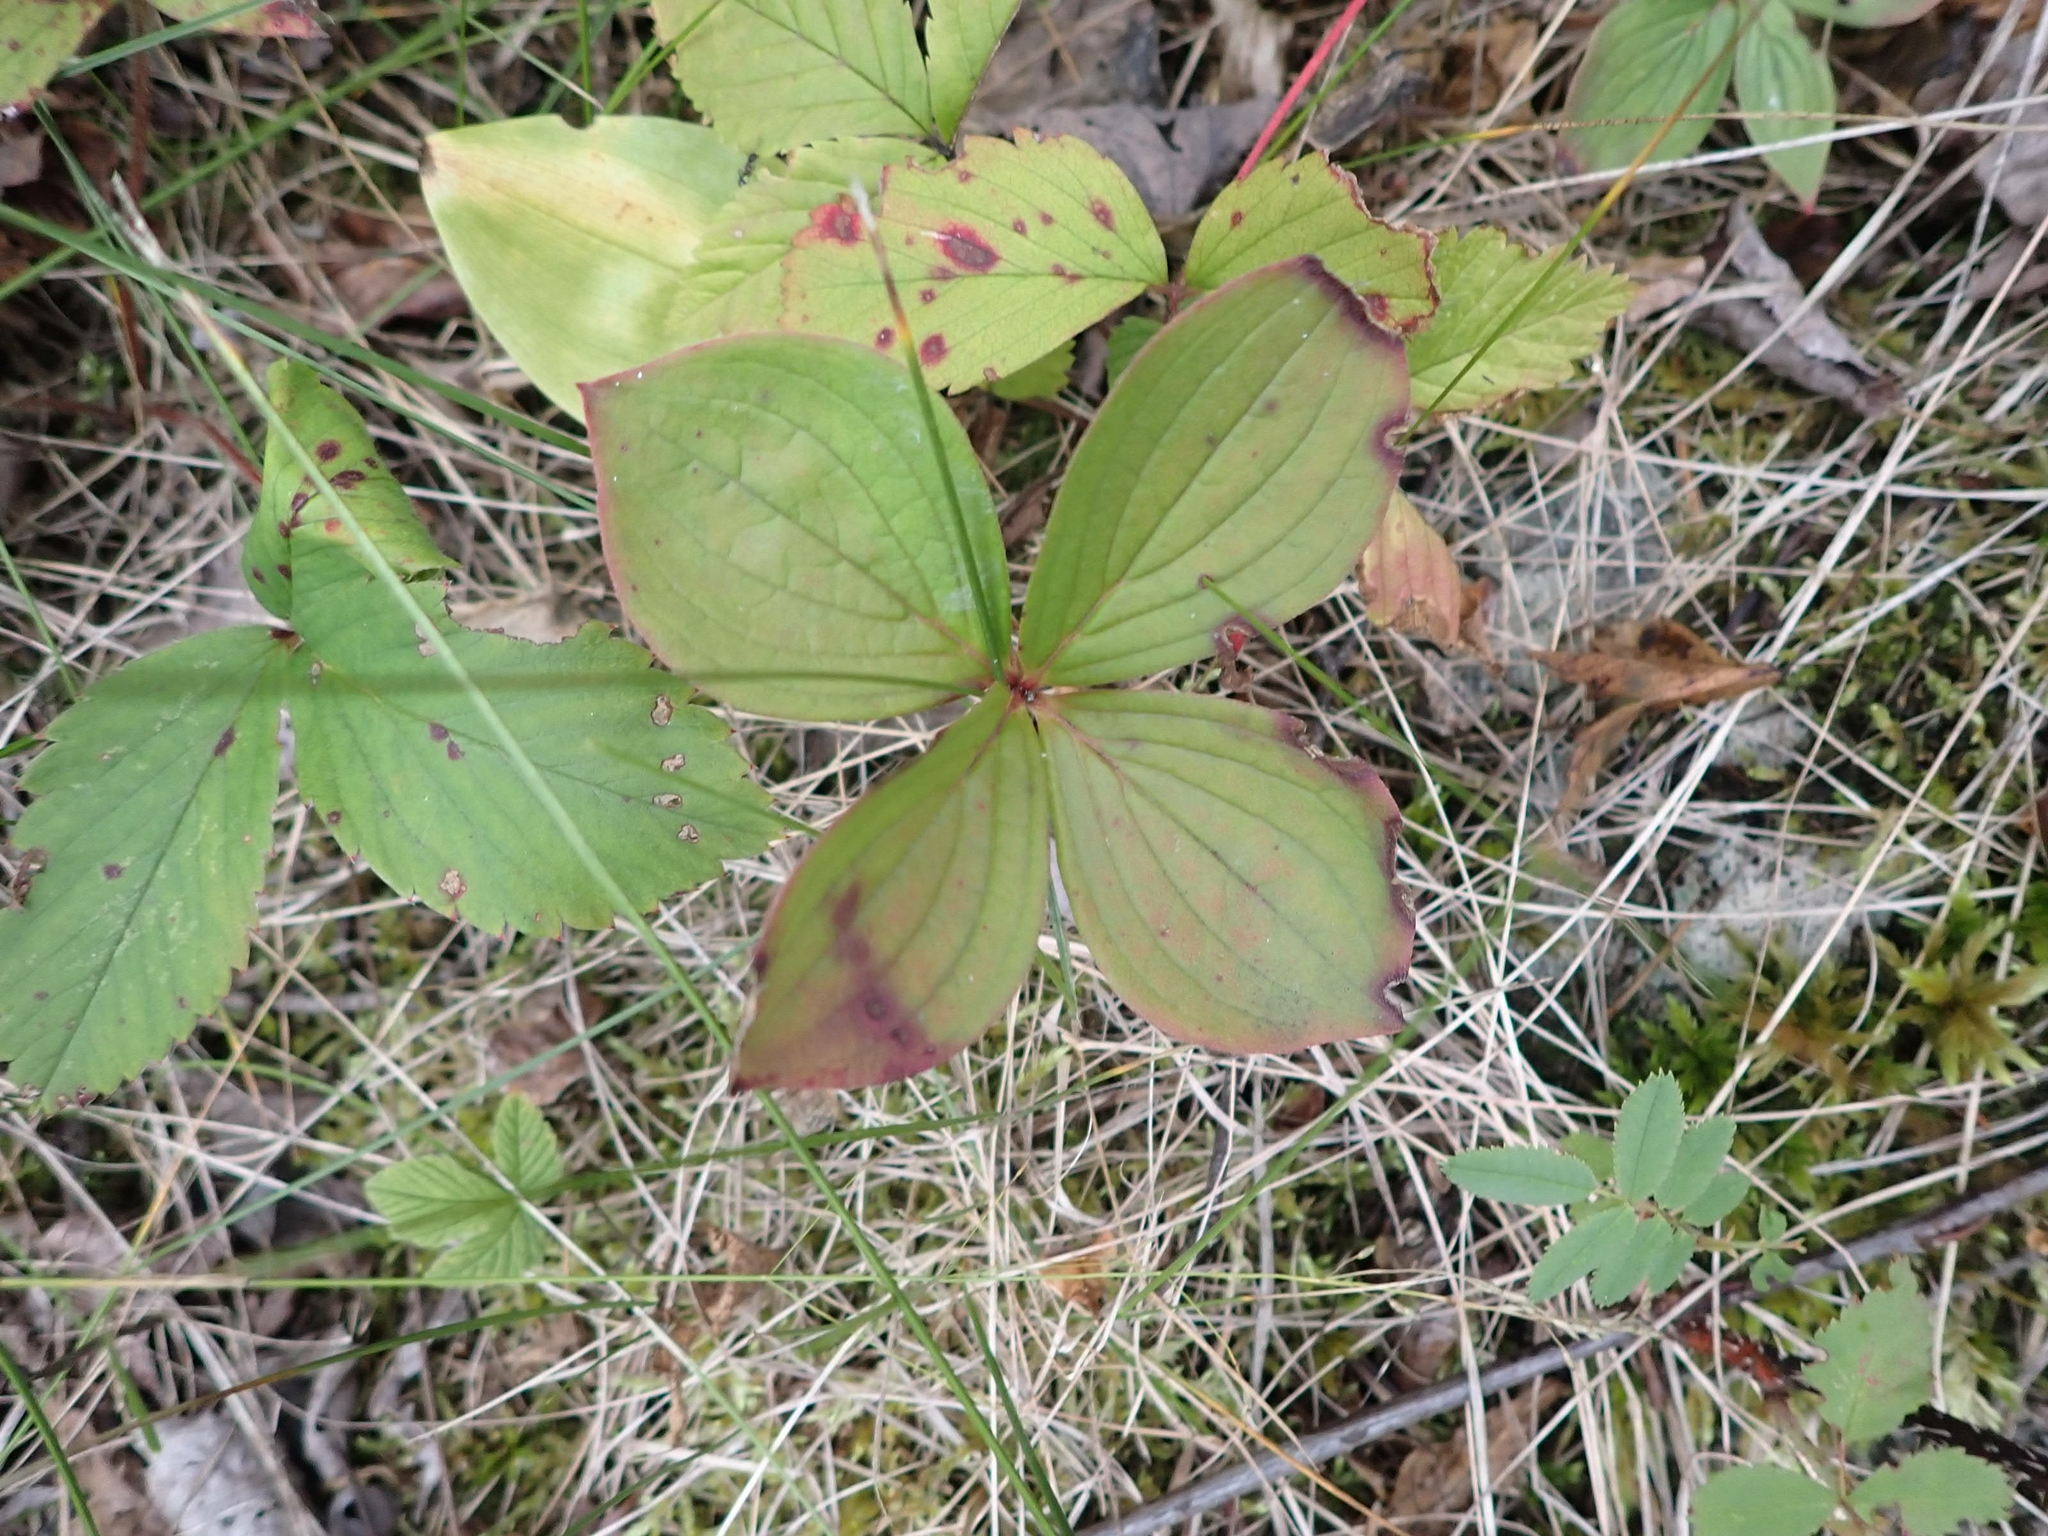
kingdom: Plantae
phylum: Tracheophyta
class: Magnoliopsida
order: Cornales
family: Cornaceae
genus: Cornus
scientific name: Cornus canadensis
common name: Creeping dogwood
